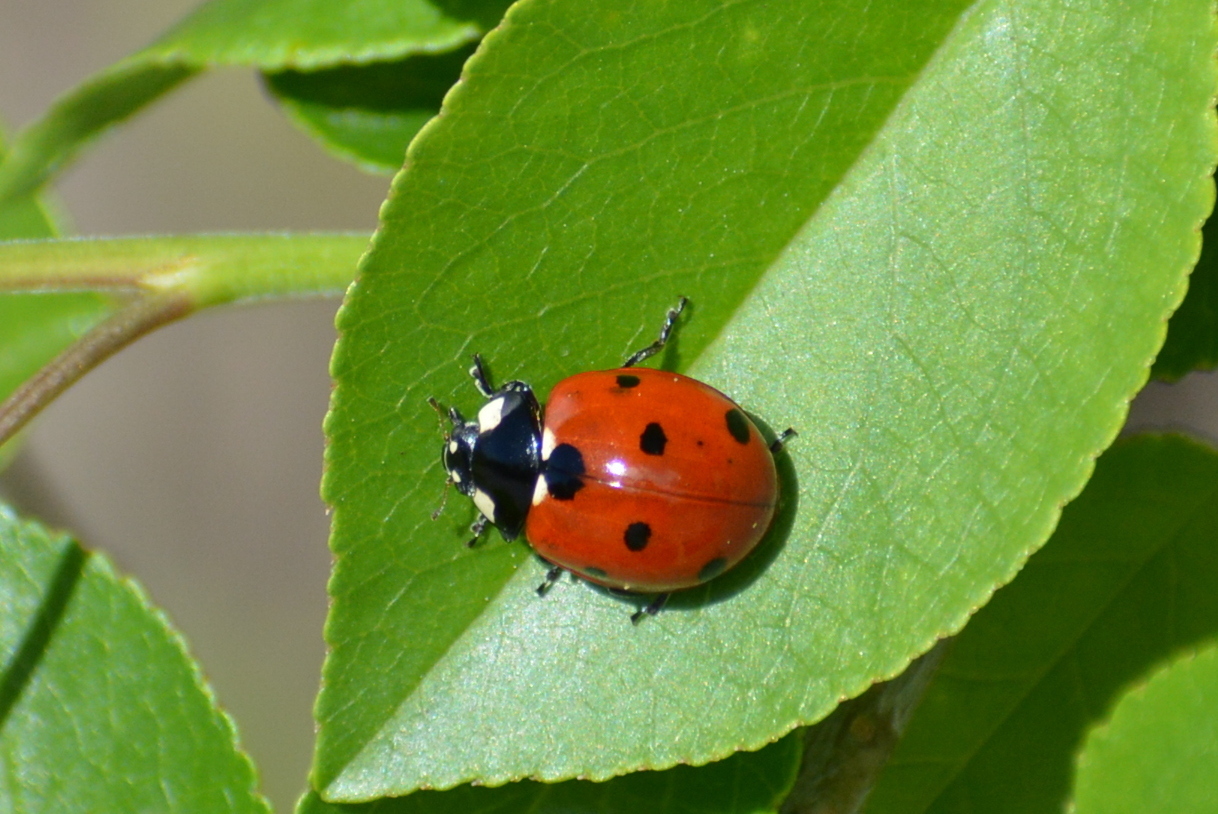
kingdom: Animalia
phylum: Arthropoda
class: Insecta
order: Coleoptera
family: Coccinellidae
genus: Coccinella
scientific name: Coccinella septempunctata
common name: Sevenspotted lady beetle
